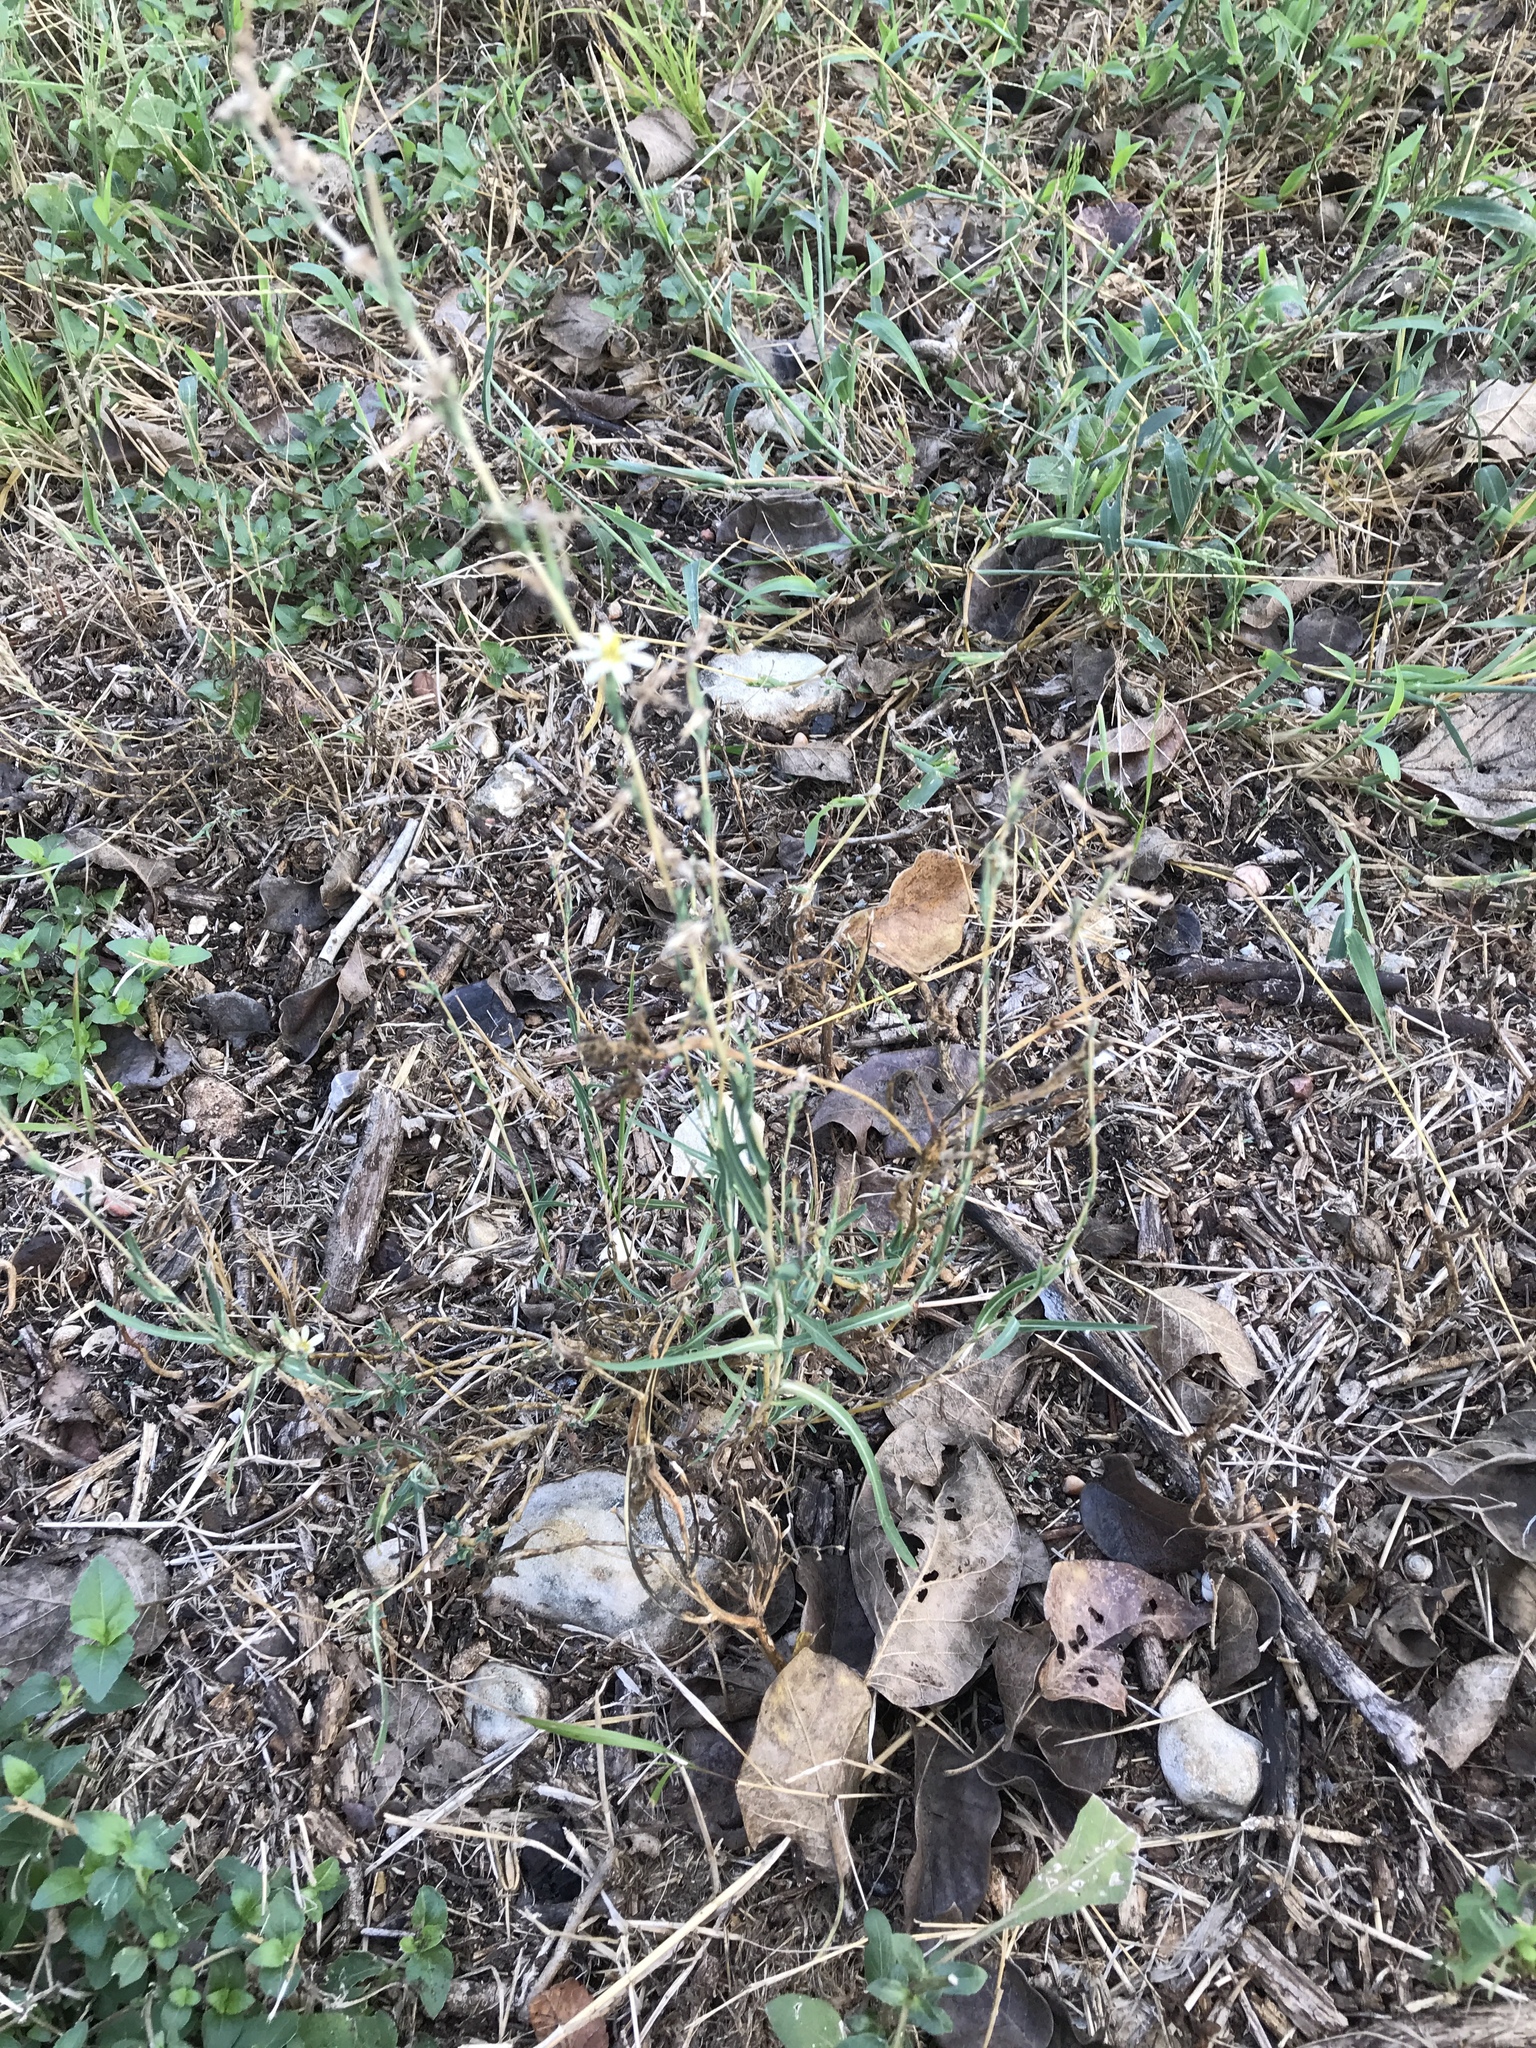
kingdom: Plantae
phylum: Tracheophyta
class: Magnoliopsida
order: Asterales
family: Asteraceae
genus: Lactuca
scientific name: Lactuca saligna
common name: Wild lettuce
